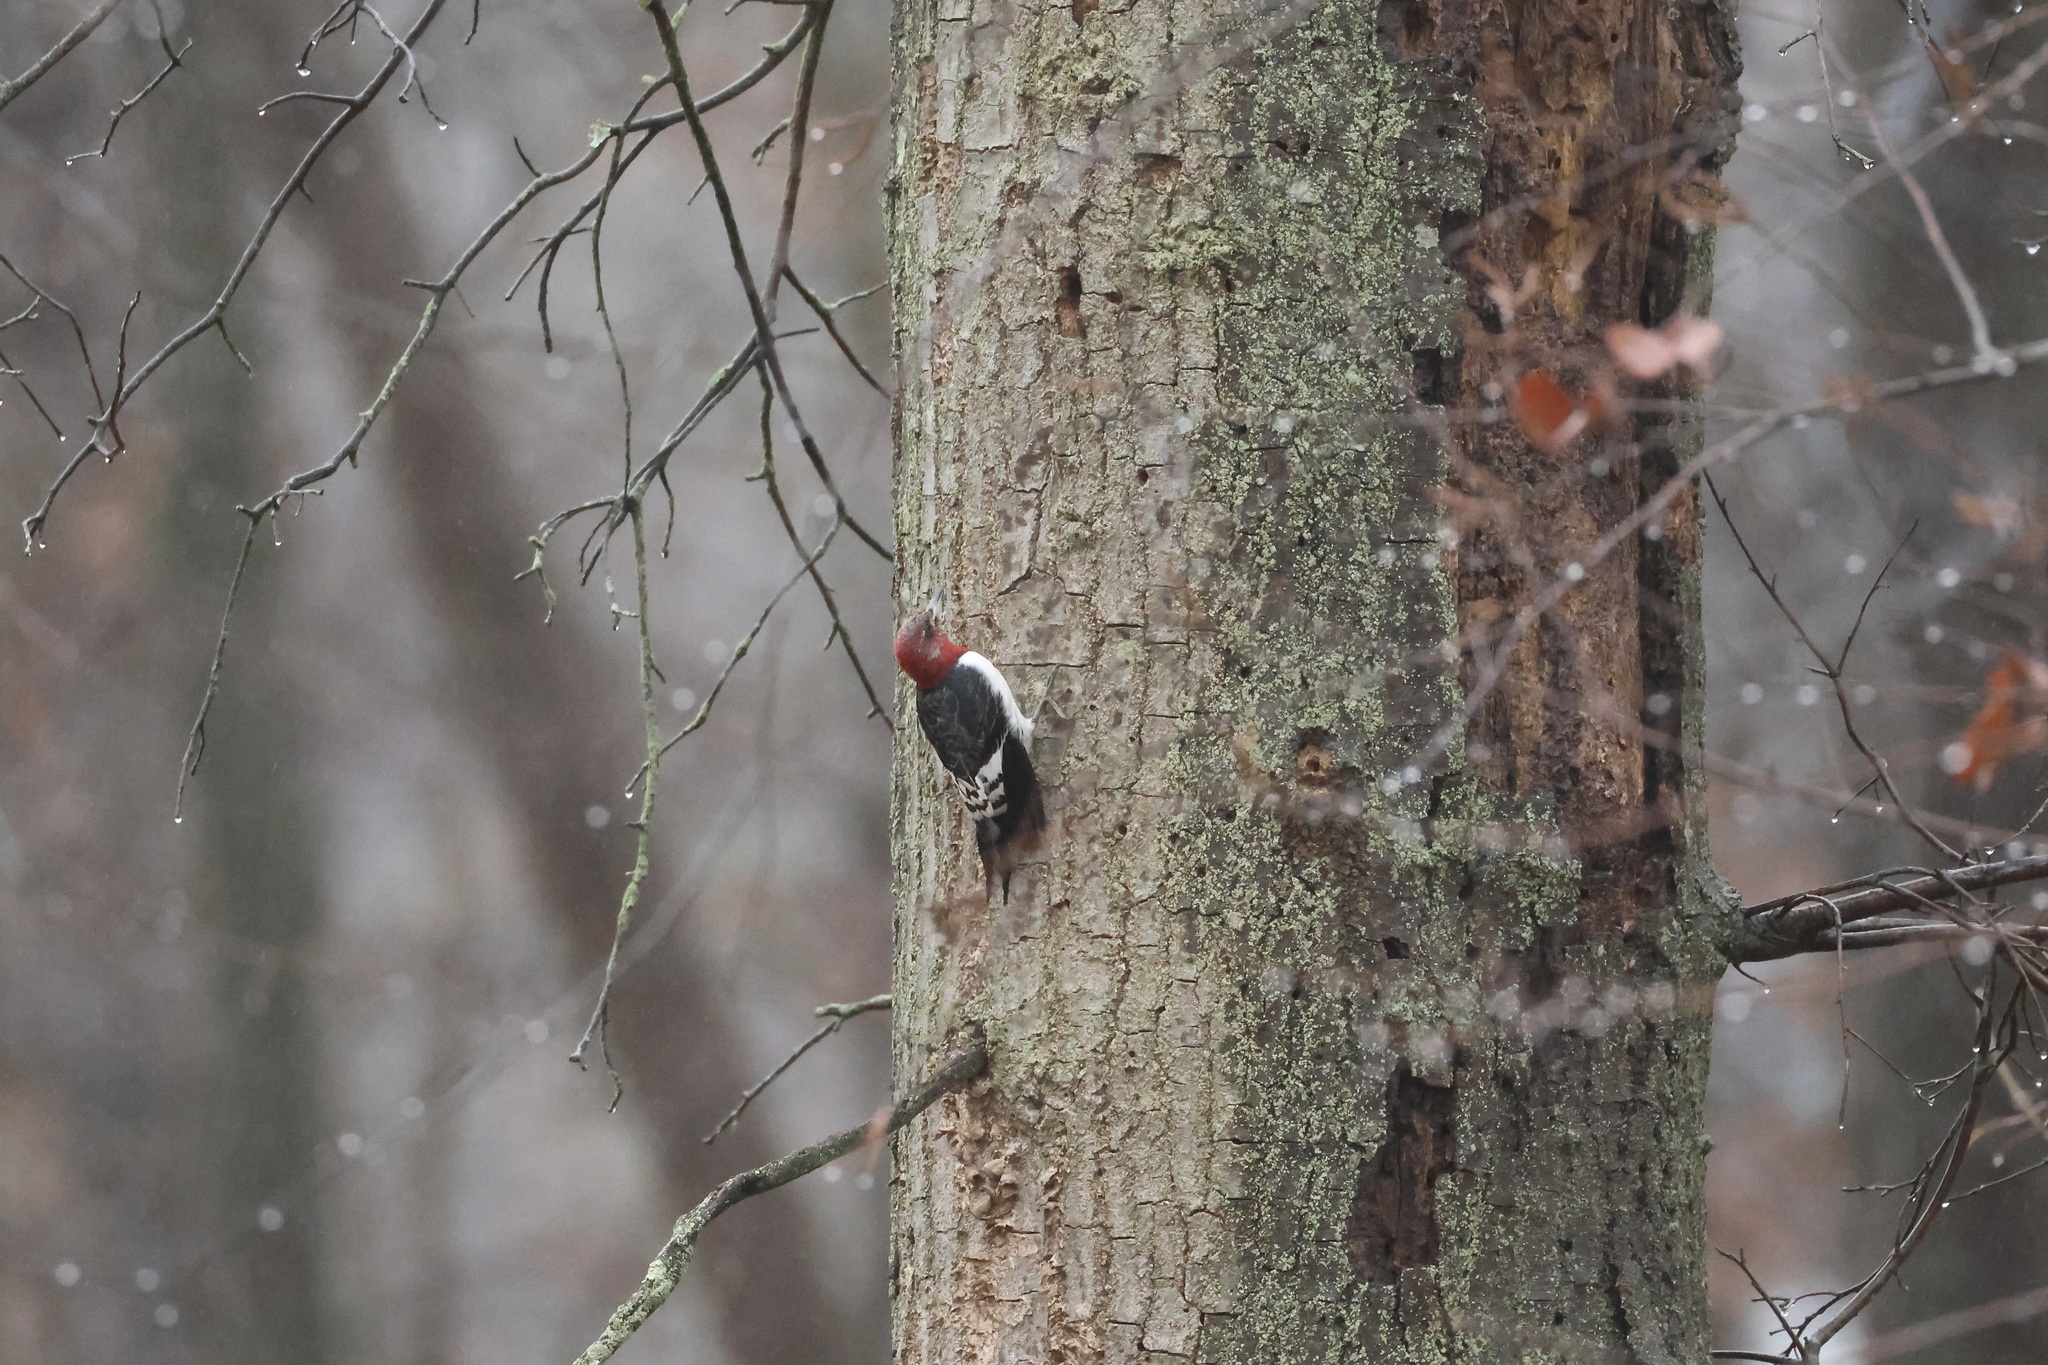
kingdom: Animalia
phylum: Chordata
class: Aves
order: Piciformes
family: Picidae
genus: Melanerpes
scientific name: Melanerpes erythrocephalus
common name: Red-headed woodpecker
